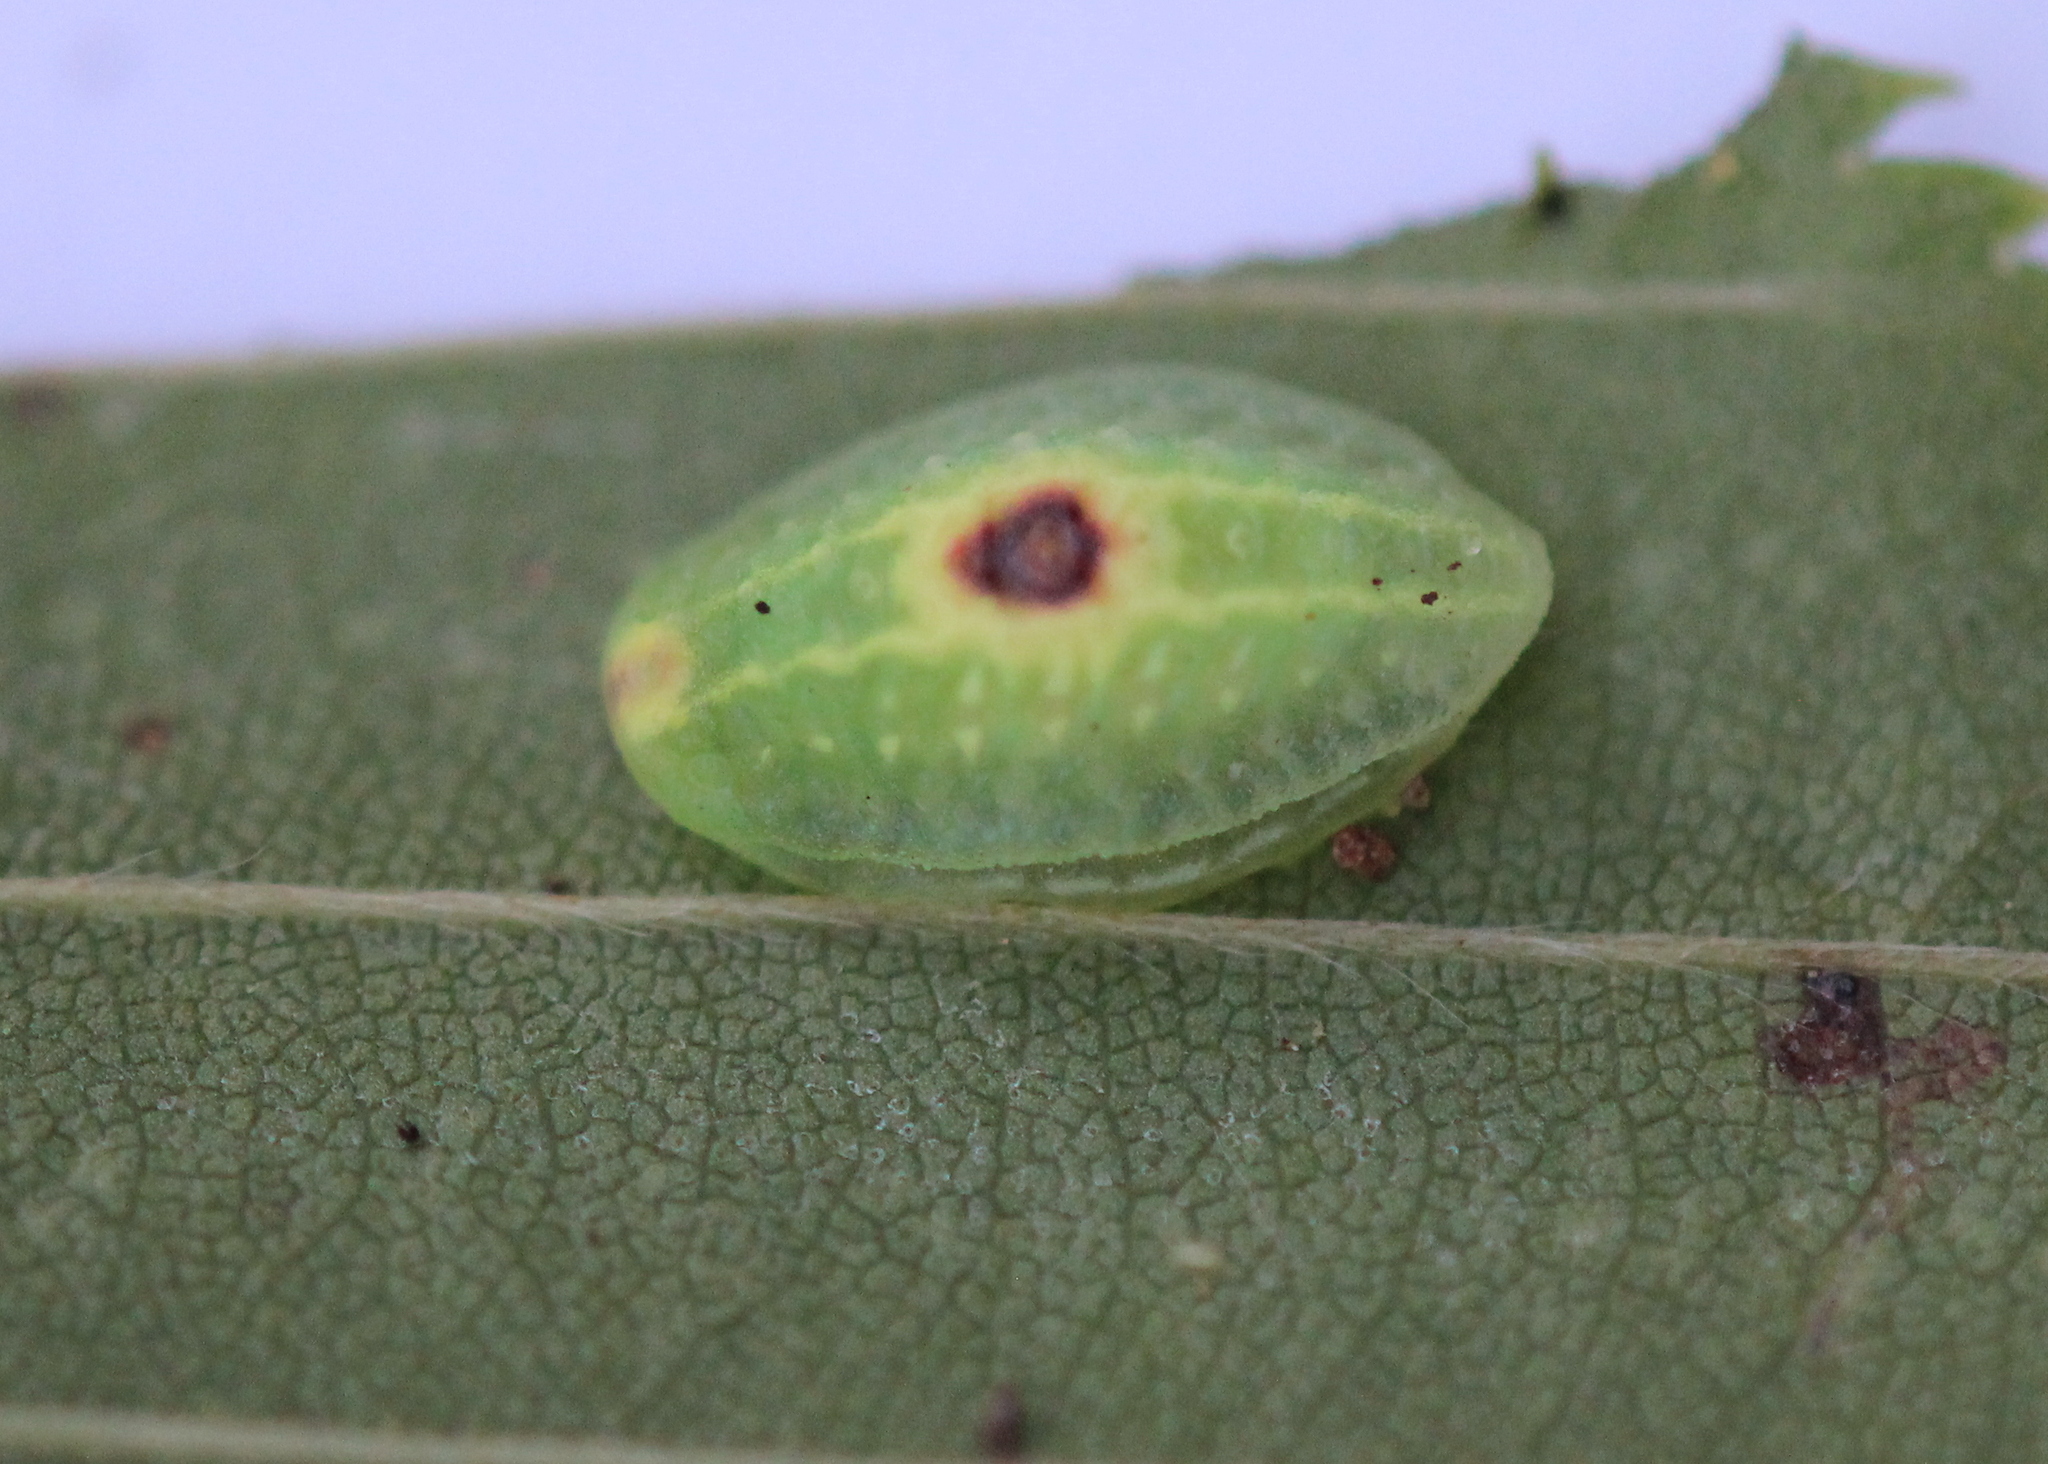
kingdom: Animalia
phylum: Arthropoda
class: Insecta
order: Lepidoptera
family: Limacodidae
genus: Tortricidia
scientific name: Tortricidia flexuosa
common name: Abbreviated button slug moth
